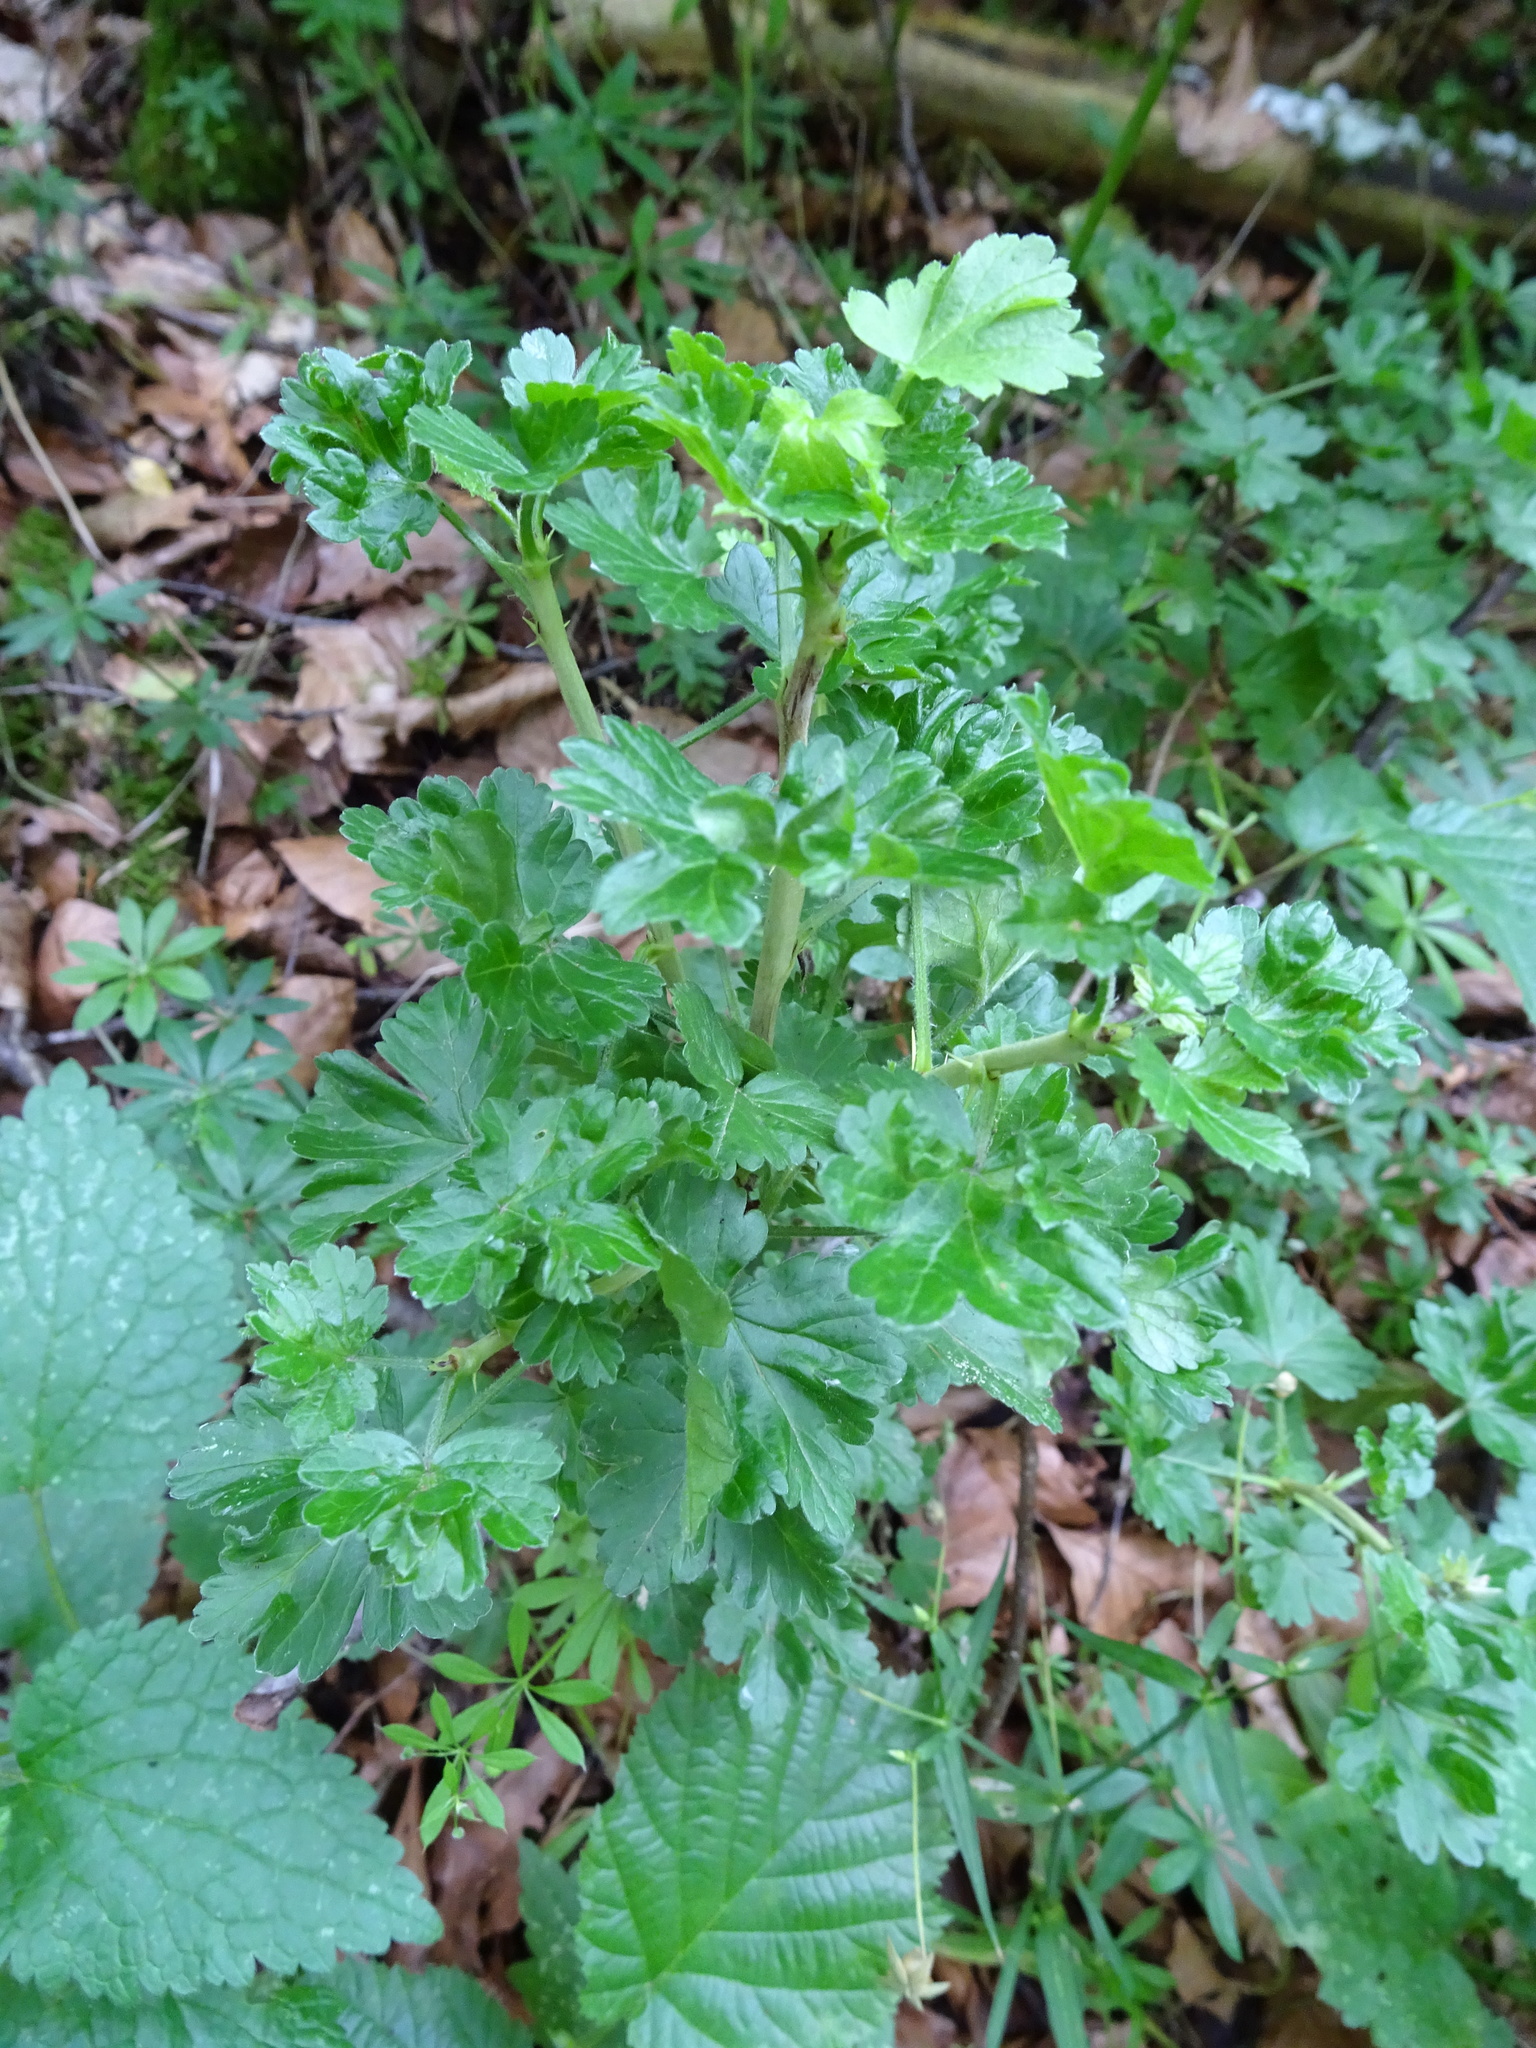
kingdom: Plantae
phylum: Tracheophyta
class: Magnoliopsida
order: Saxifragales
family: Grossulariaceae
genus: Ribes
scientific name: Ribes uva-crispa
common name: Gooseberry
